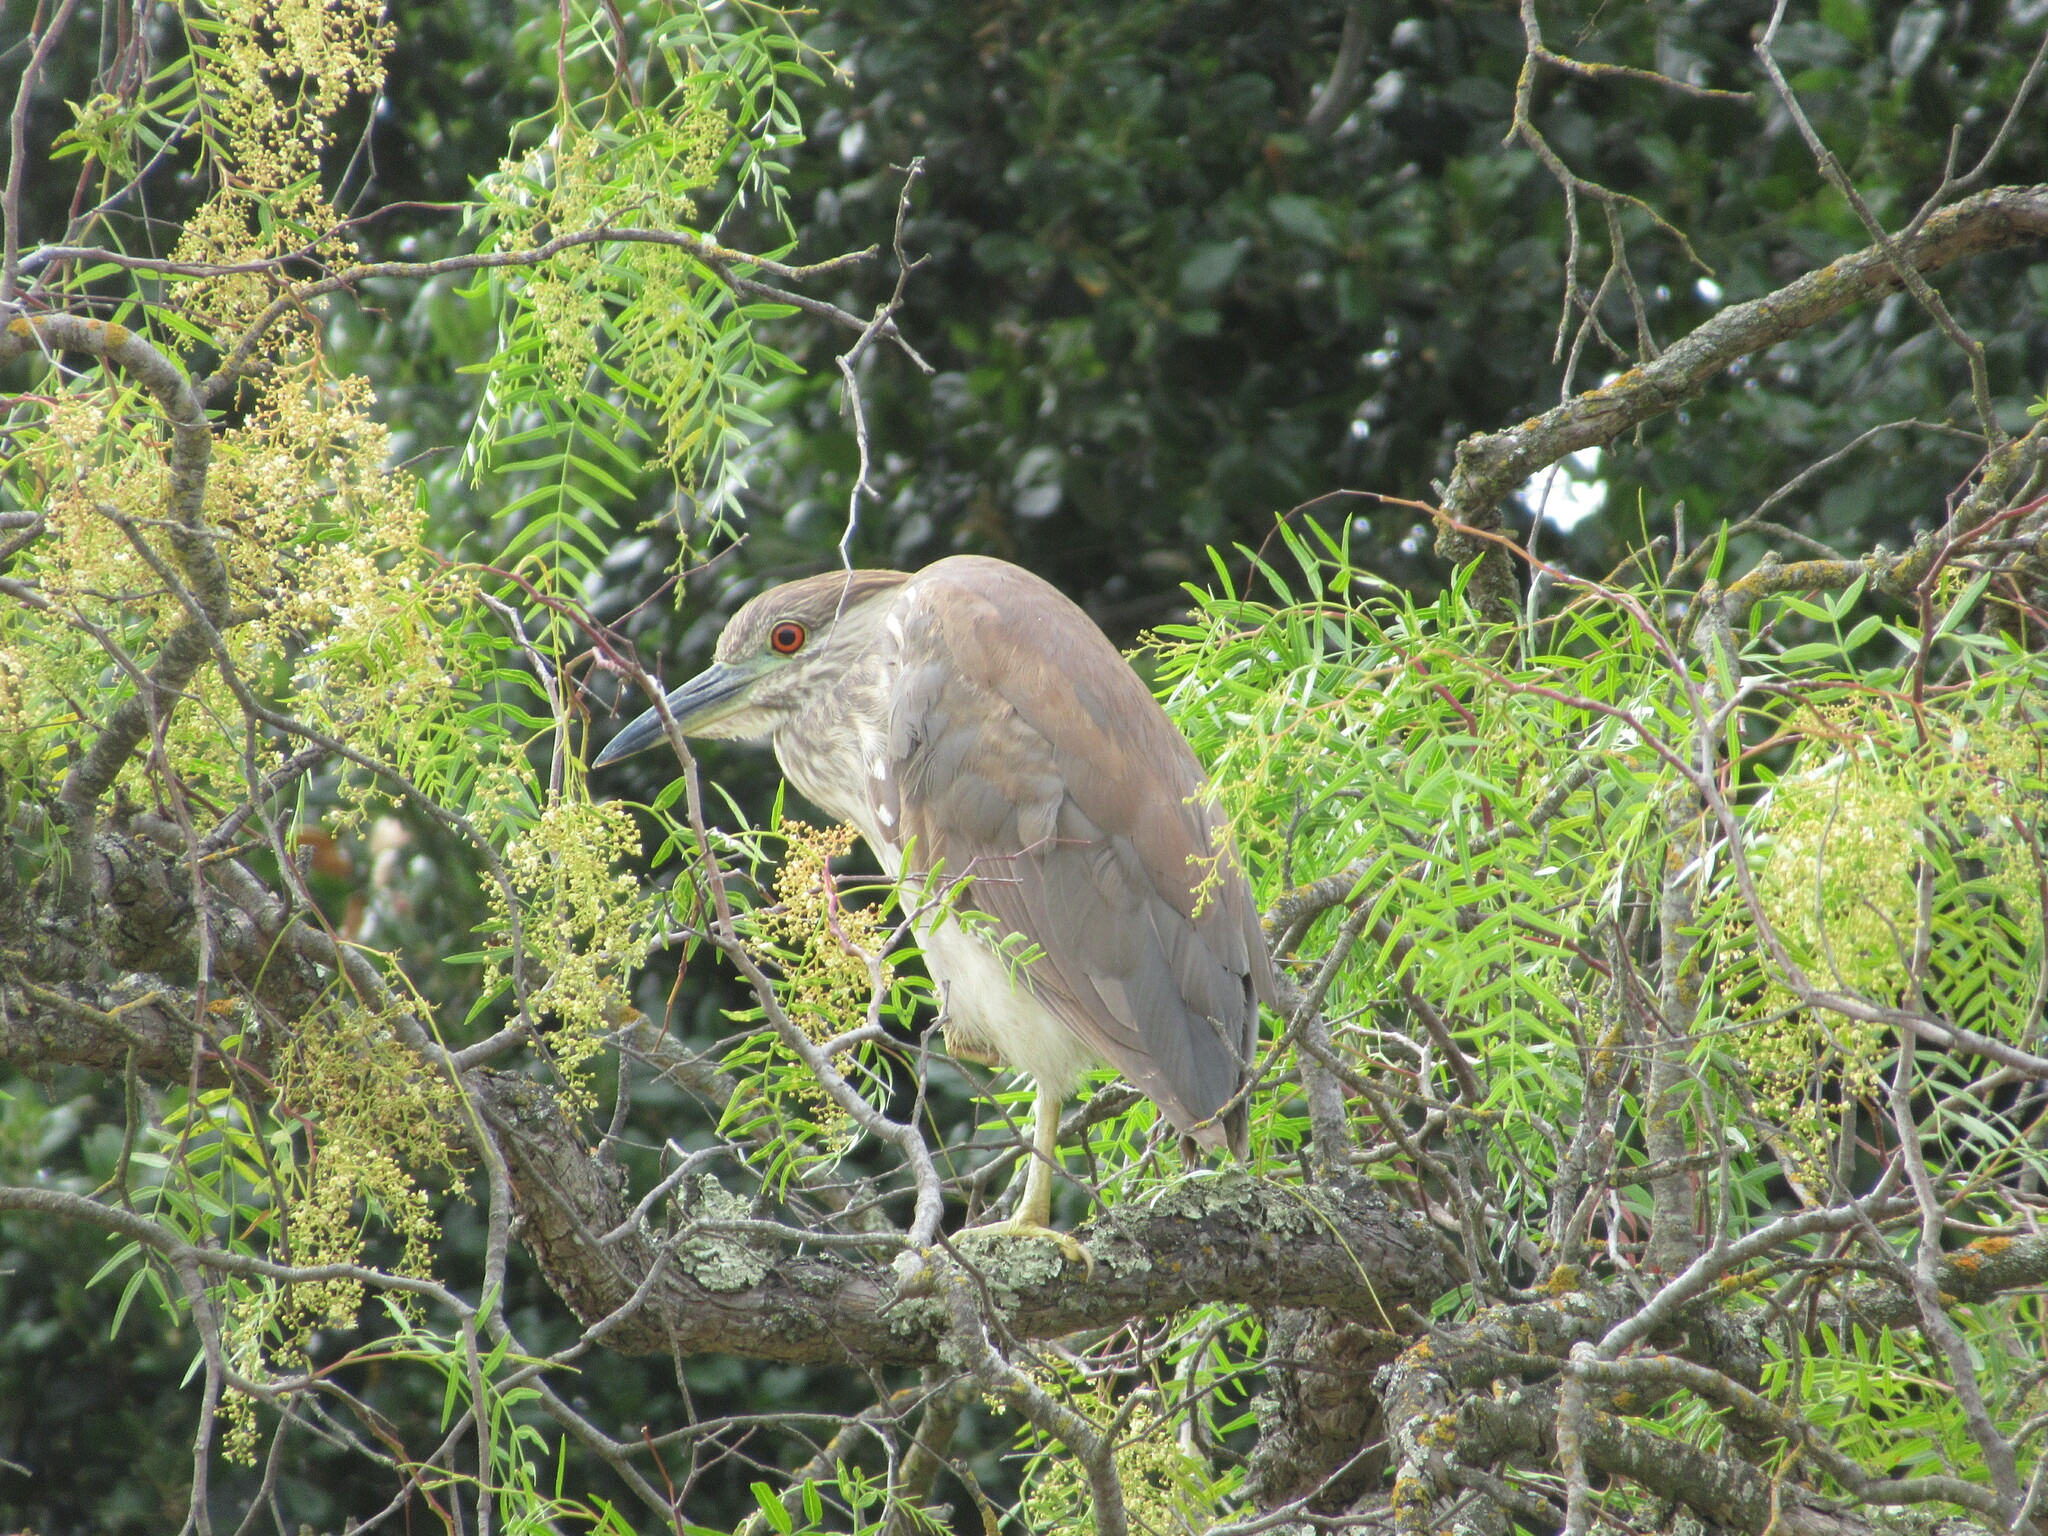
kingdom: Animalia
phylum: Chordata
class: Aves
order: Pelecaniformes
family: Ardeidae
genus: Nycticorax
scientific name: Nycticorax nycticorax
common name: Black-crowned night heron
